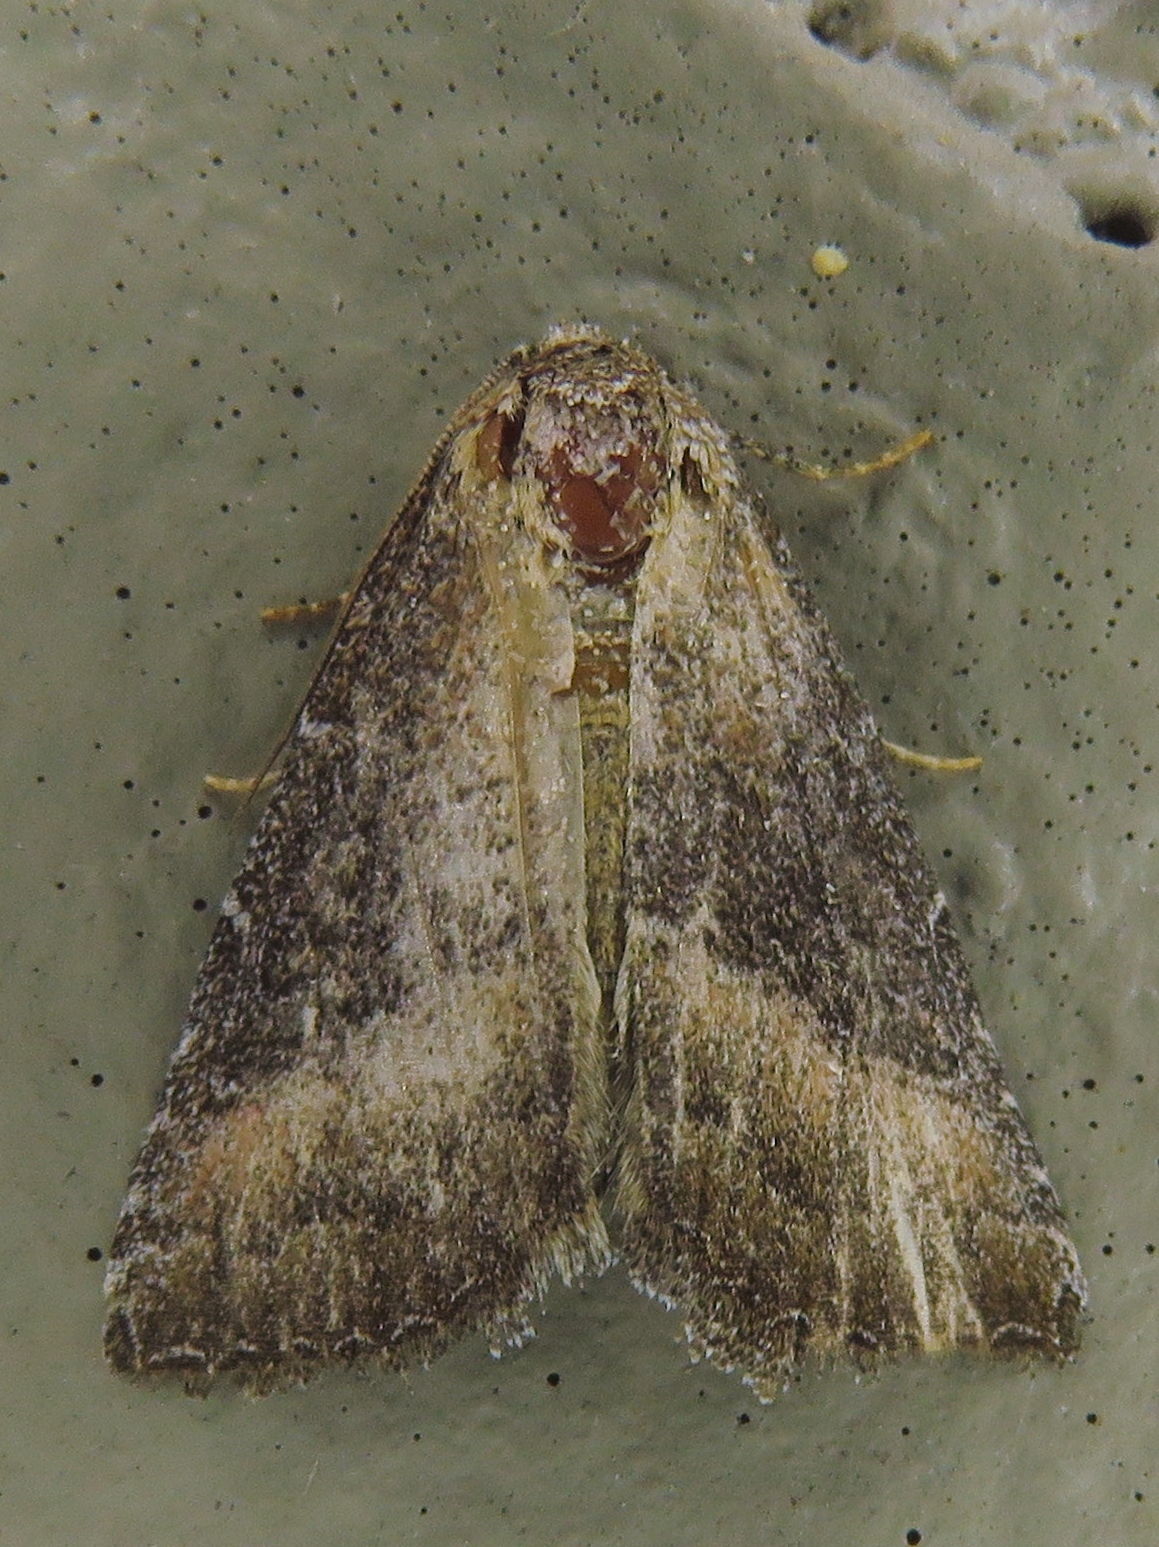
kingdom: Animalia
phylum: Arthropoda
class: Insecta
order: Lepidoptera
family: Noctuidae
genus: Ogdoconta
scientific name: Ogdoconta cinereola
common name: Common pinkband
